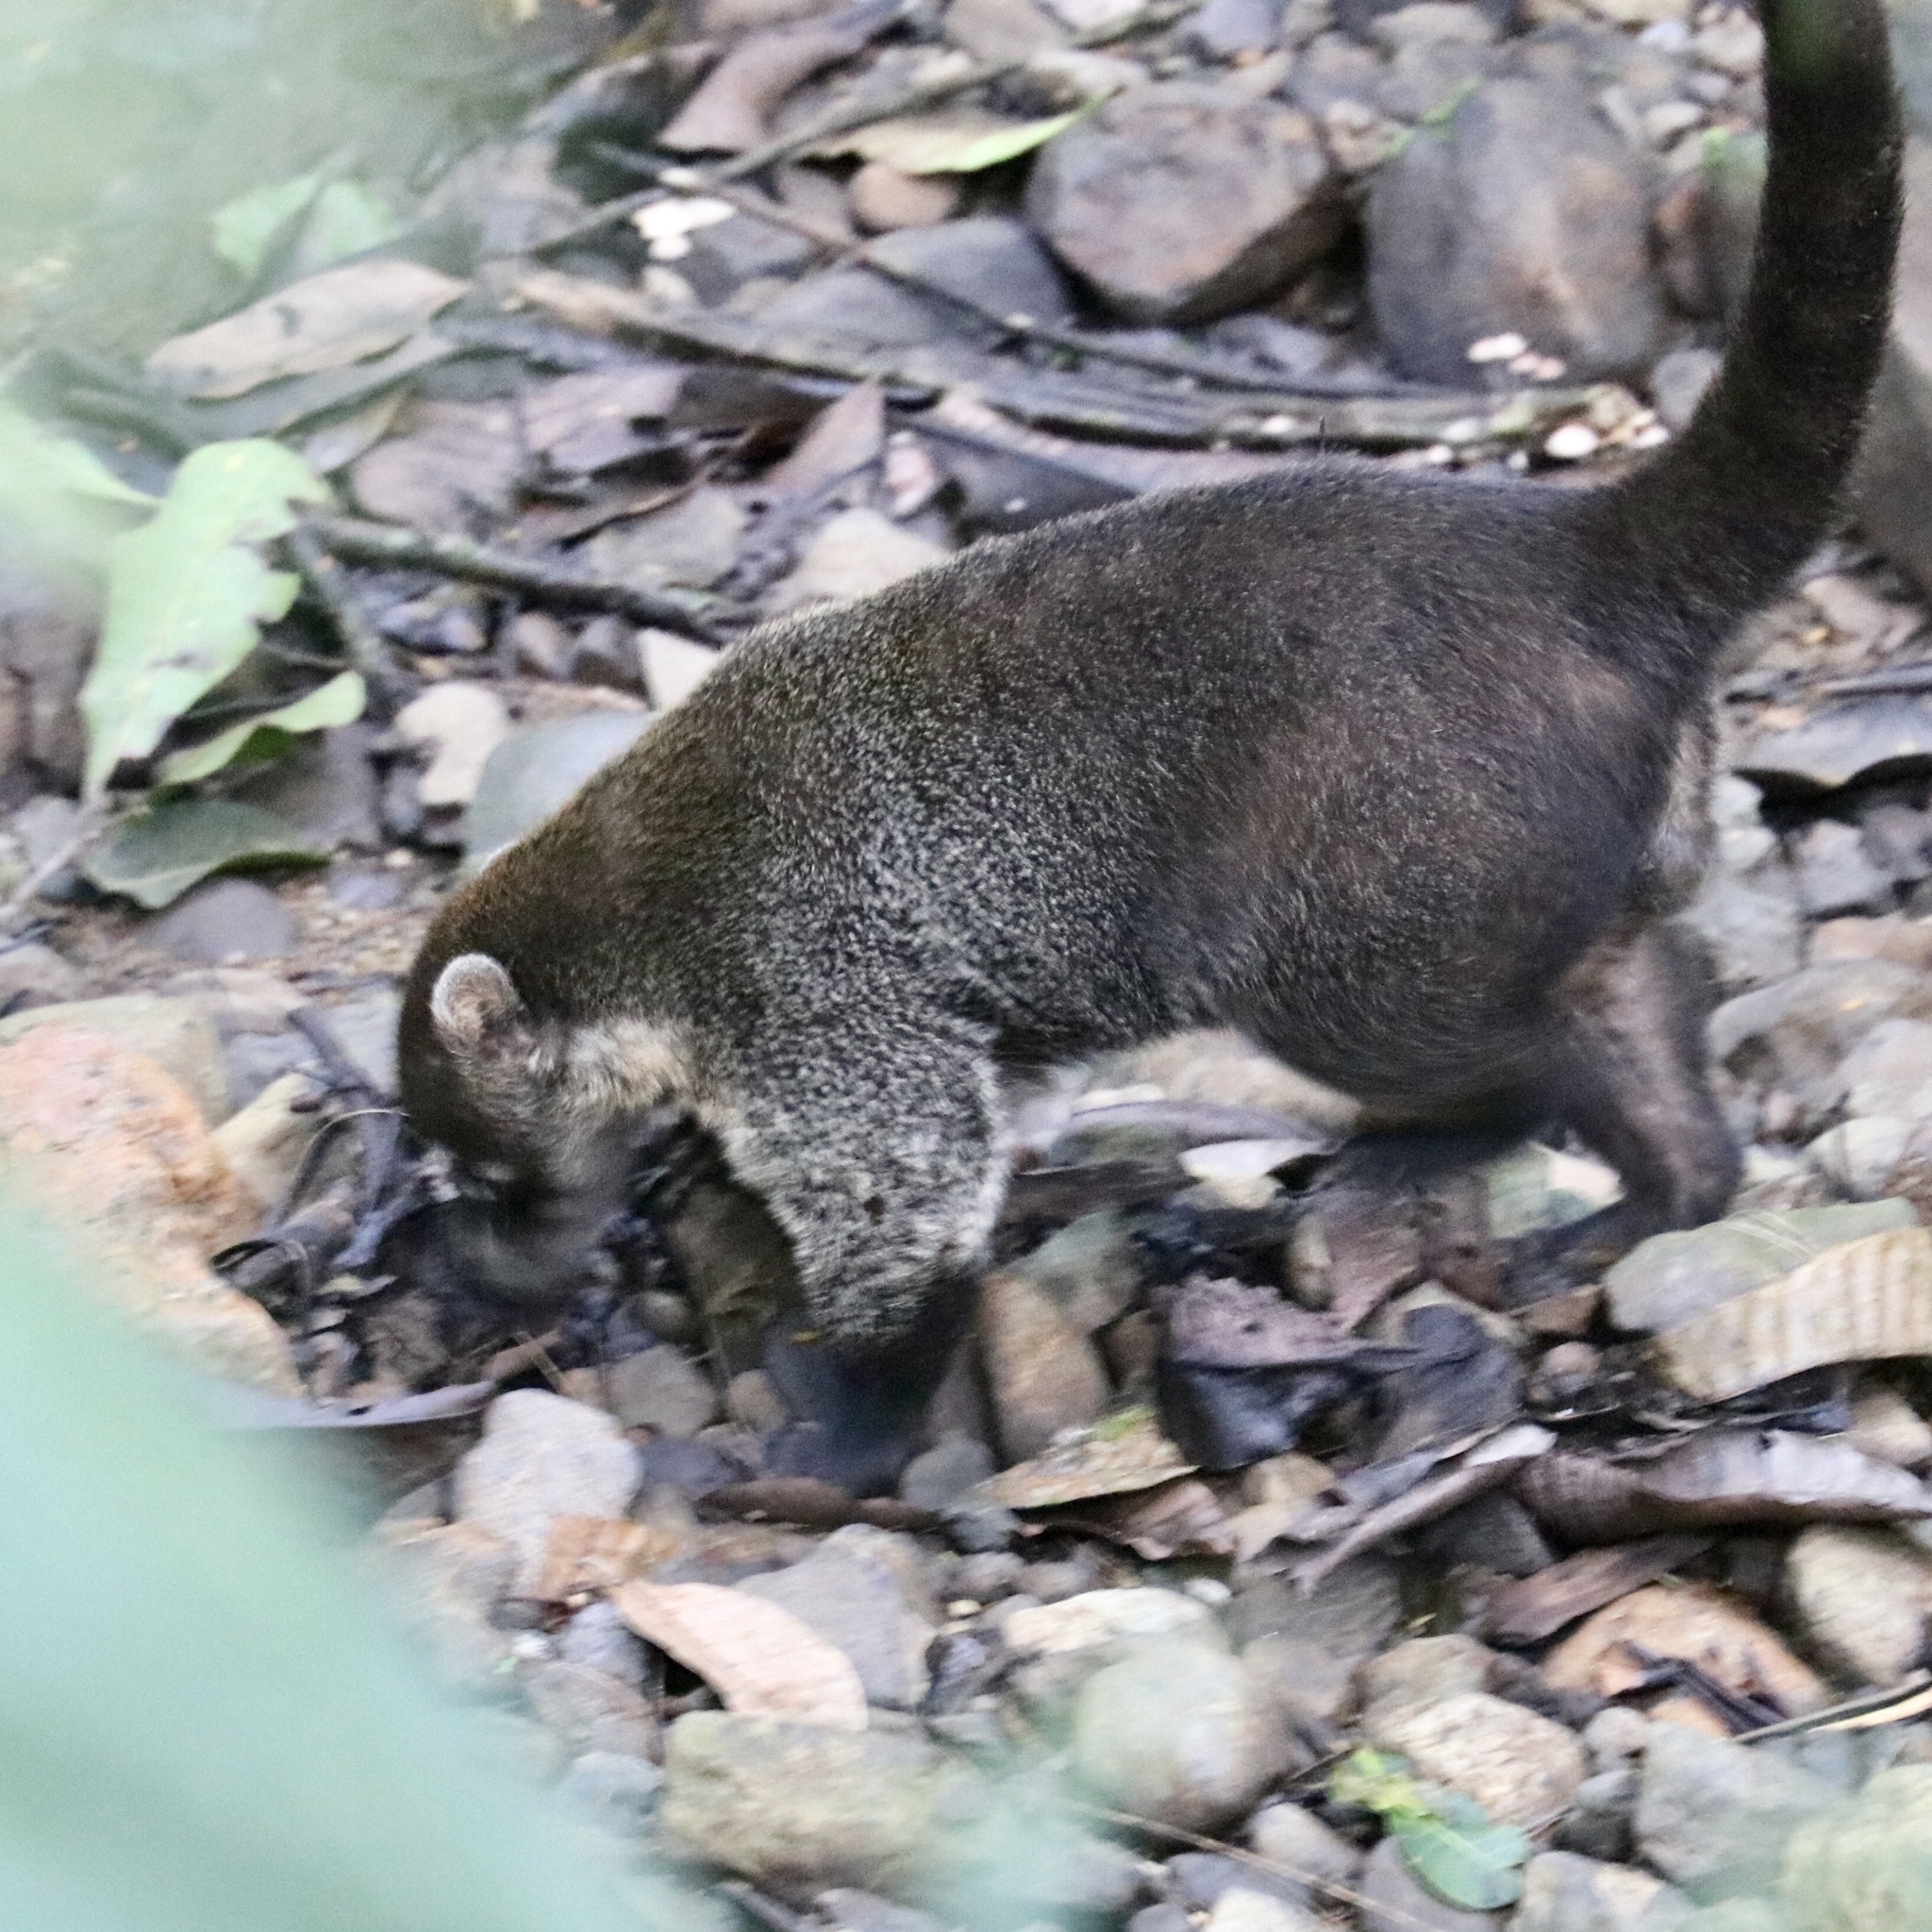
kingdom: Animalia
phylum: Chordata
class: Mammalia
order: Carnivora
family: Procyonidae
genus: Nasua
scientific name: Nasua narica
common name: White-nosed coati
